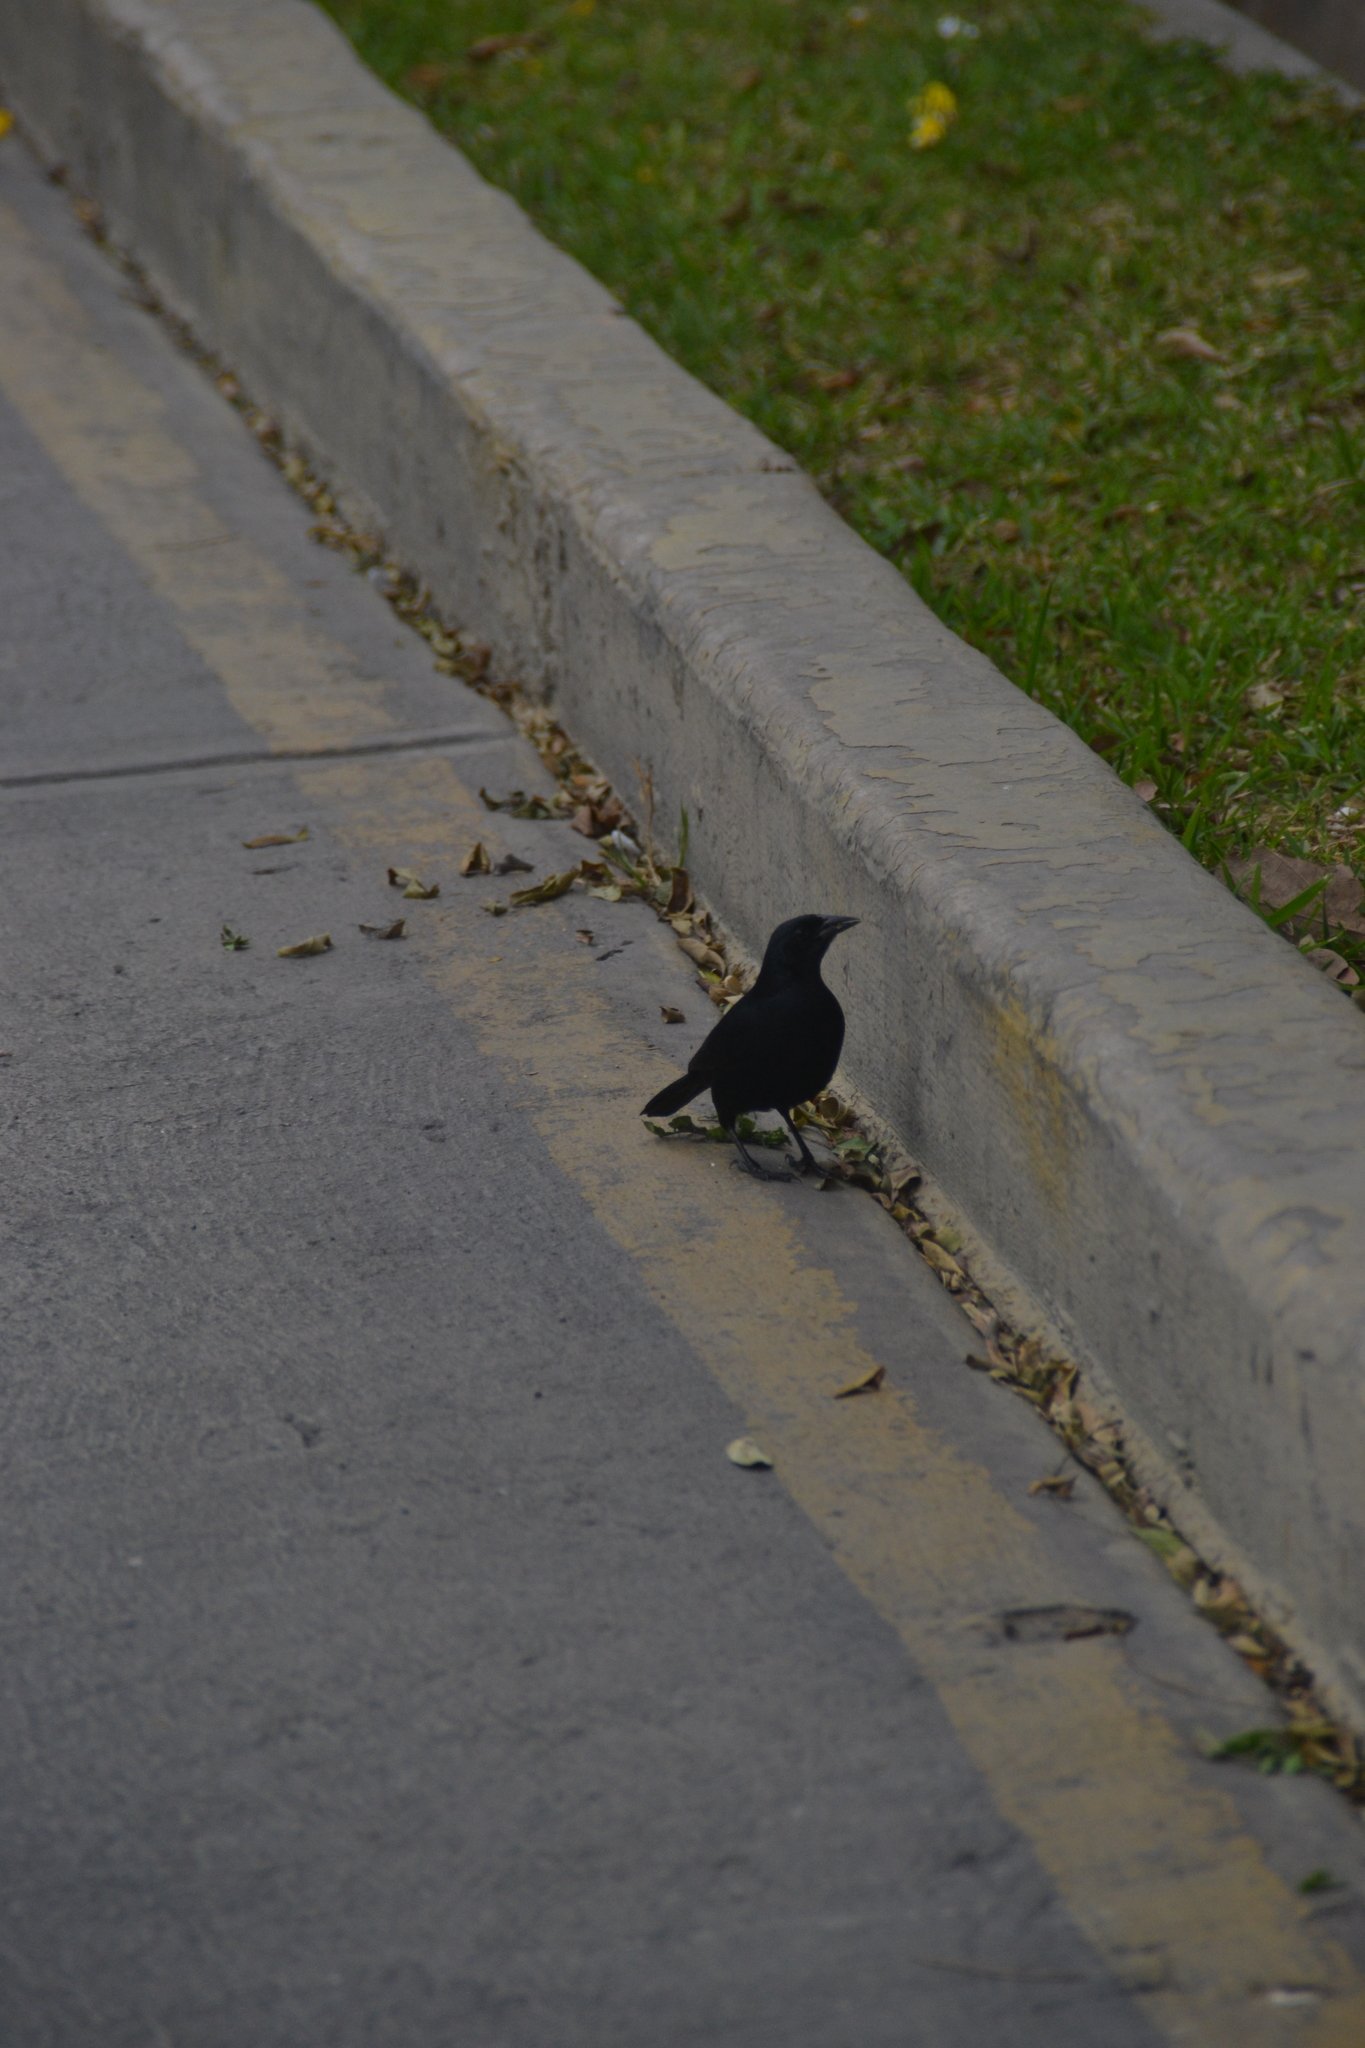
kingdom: Animalia
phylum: Chordata
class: Aves
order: Passeriformes
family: Icteridae
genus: Molothrus
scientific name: Molothrus bonariensis
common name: Shiny cowbird
